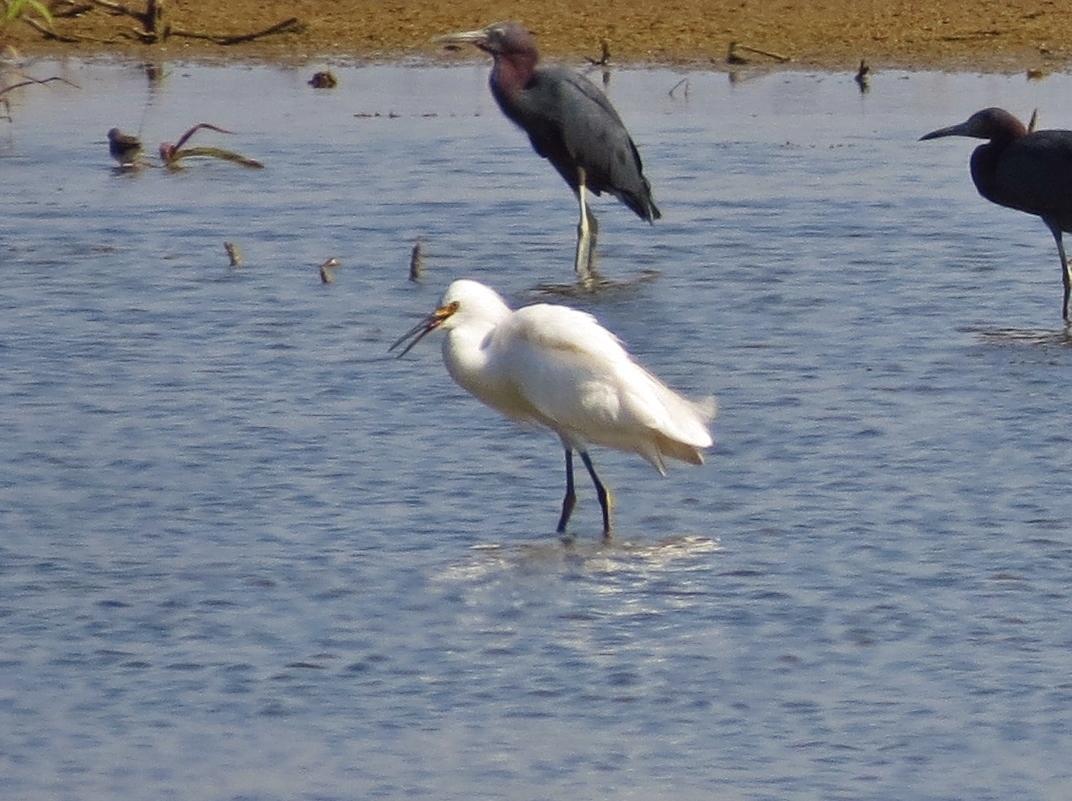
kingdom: Animalia
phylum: Chordata
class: Aves
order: Pelecaniformes
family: Ardeidae
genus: Egretta
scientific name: Egretta thula
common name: Snowy egret
